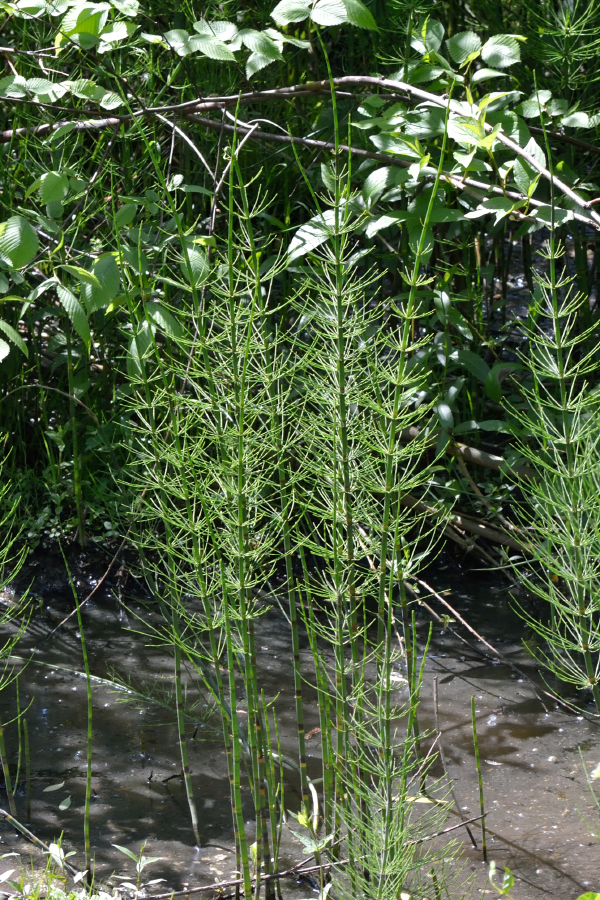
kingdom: Plantae
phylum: Tracheophyta
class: Polypodiopsida
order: Equisetales
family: Equisetaceae
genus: Equisetum
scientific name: Equisetum fluviatile
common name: Water horsetail
